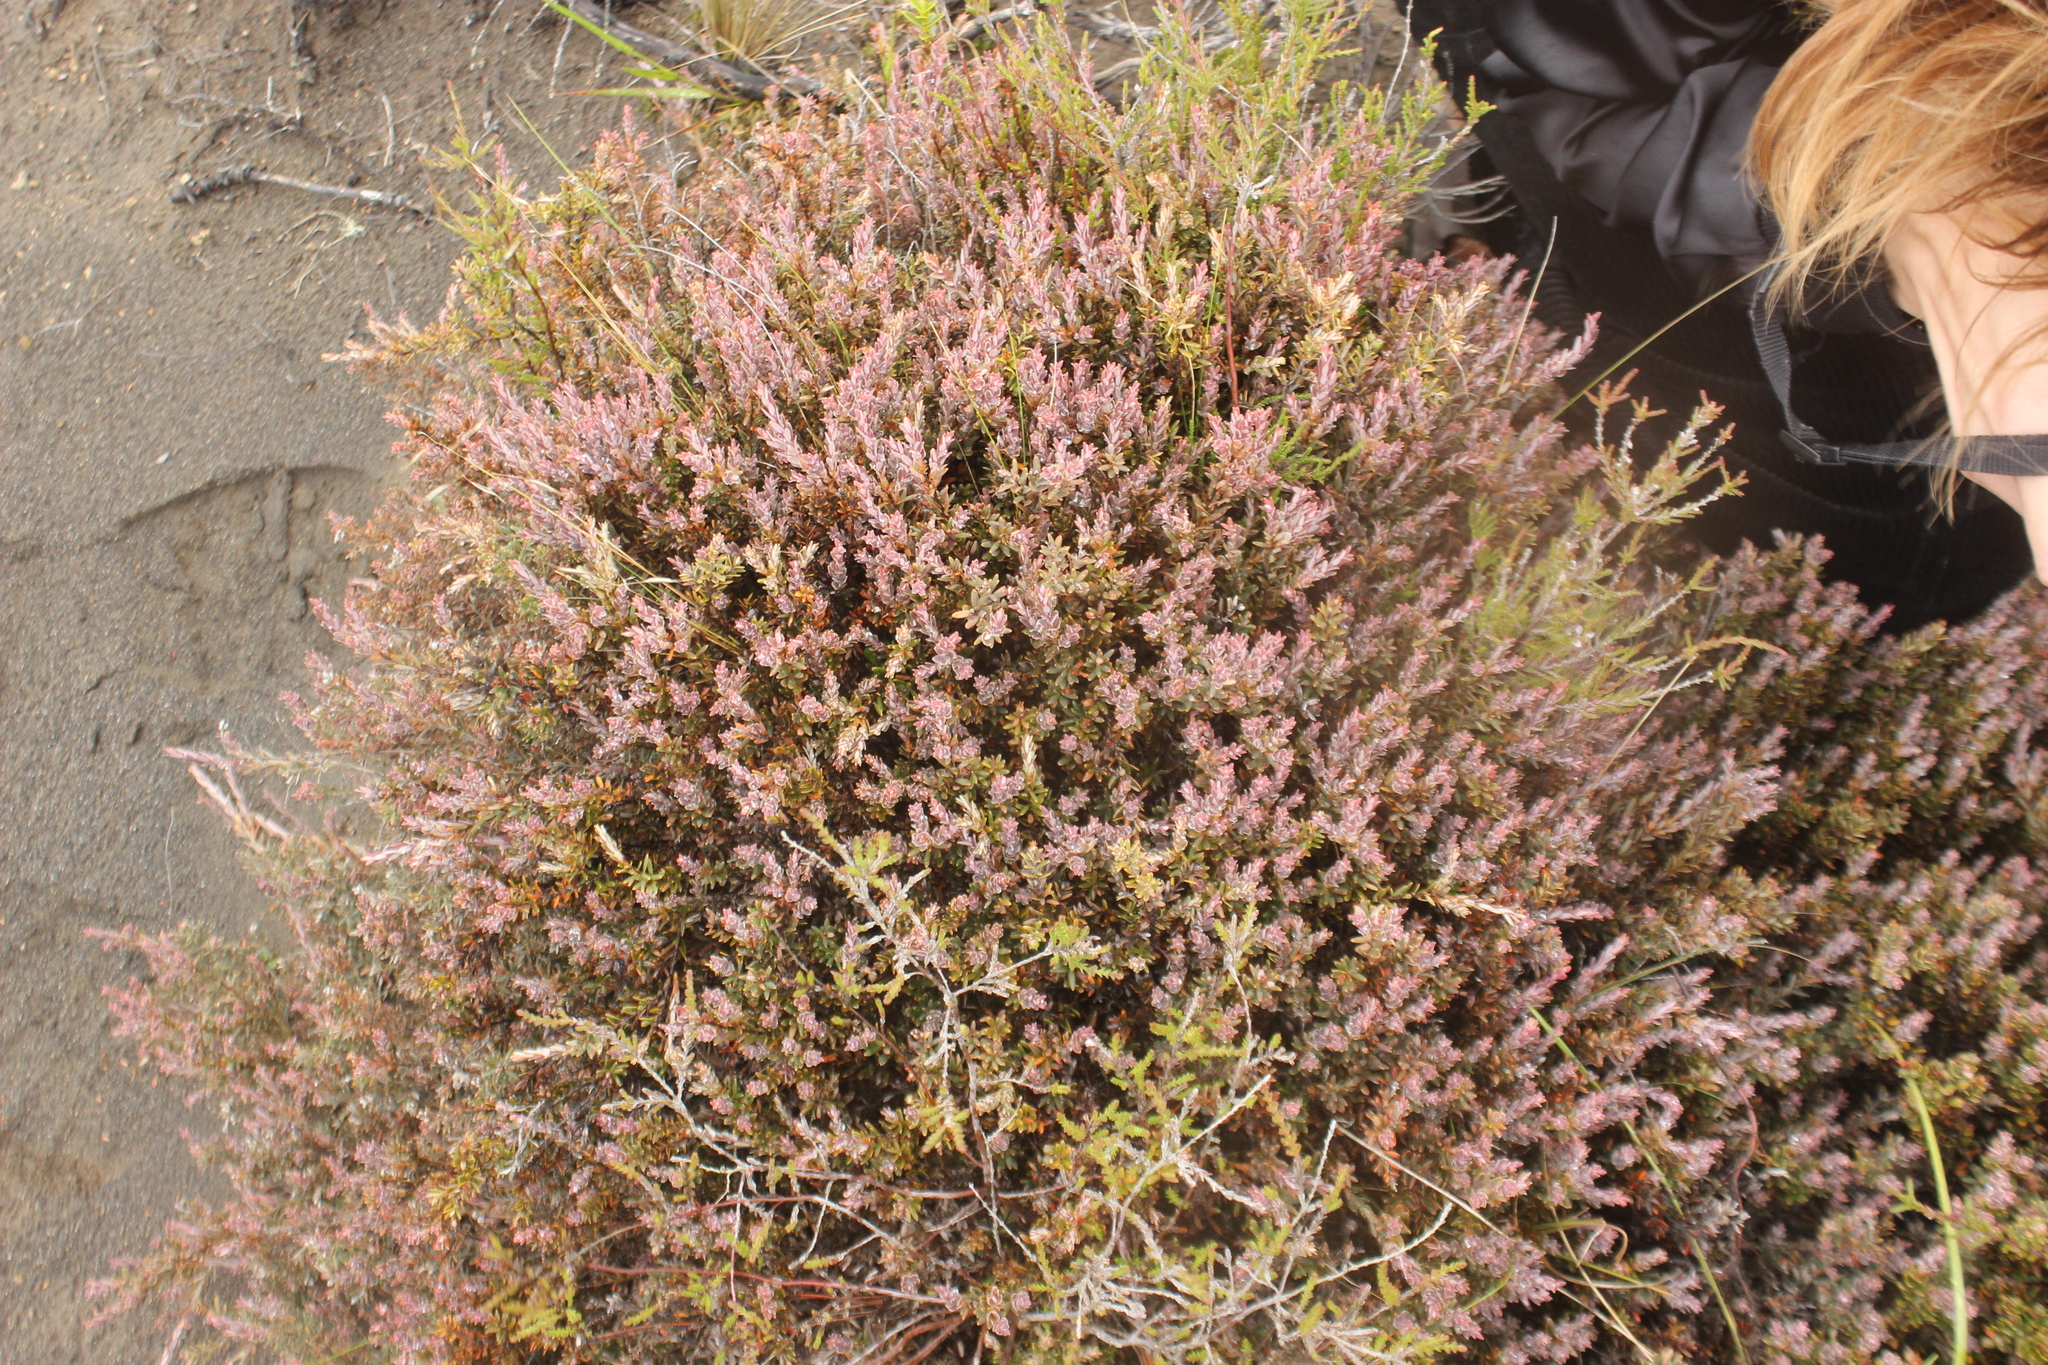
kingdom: Plantae
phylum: Tracheophyta
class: Magnoliopsida
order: Ericales
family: Ericaceae
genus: Acrothamnus
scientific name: Acrothamnus colensoi
